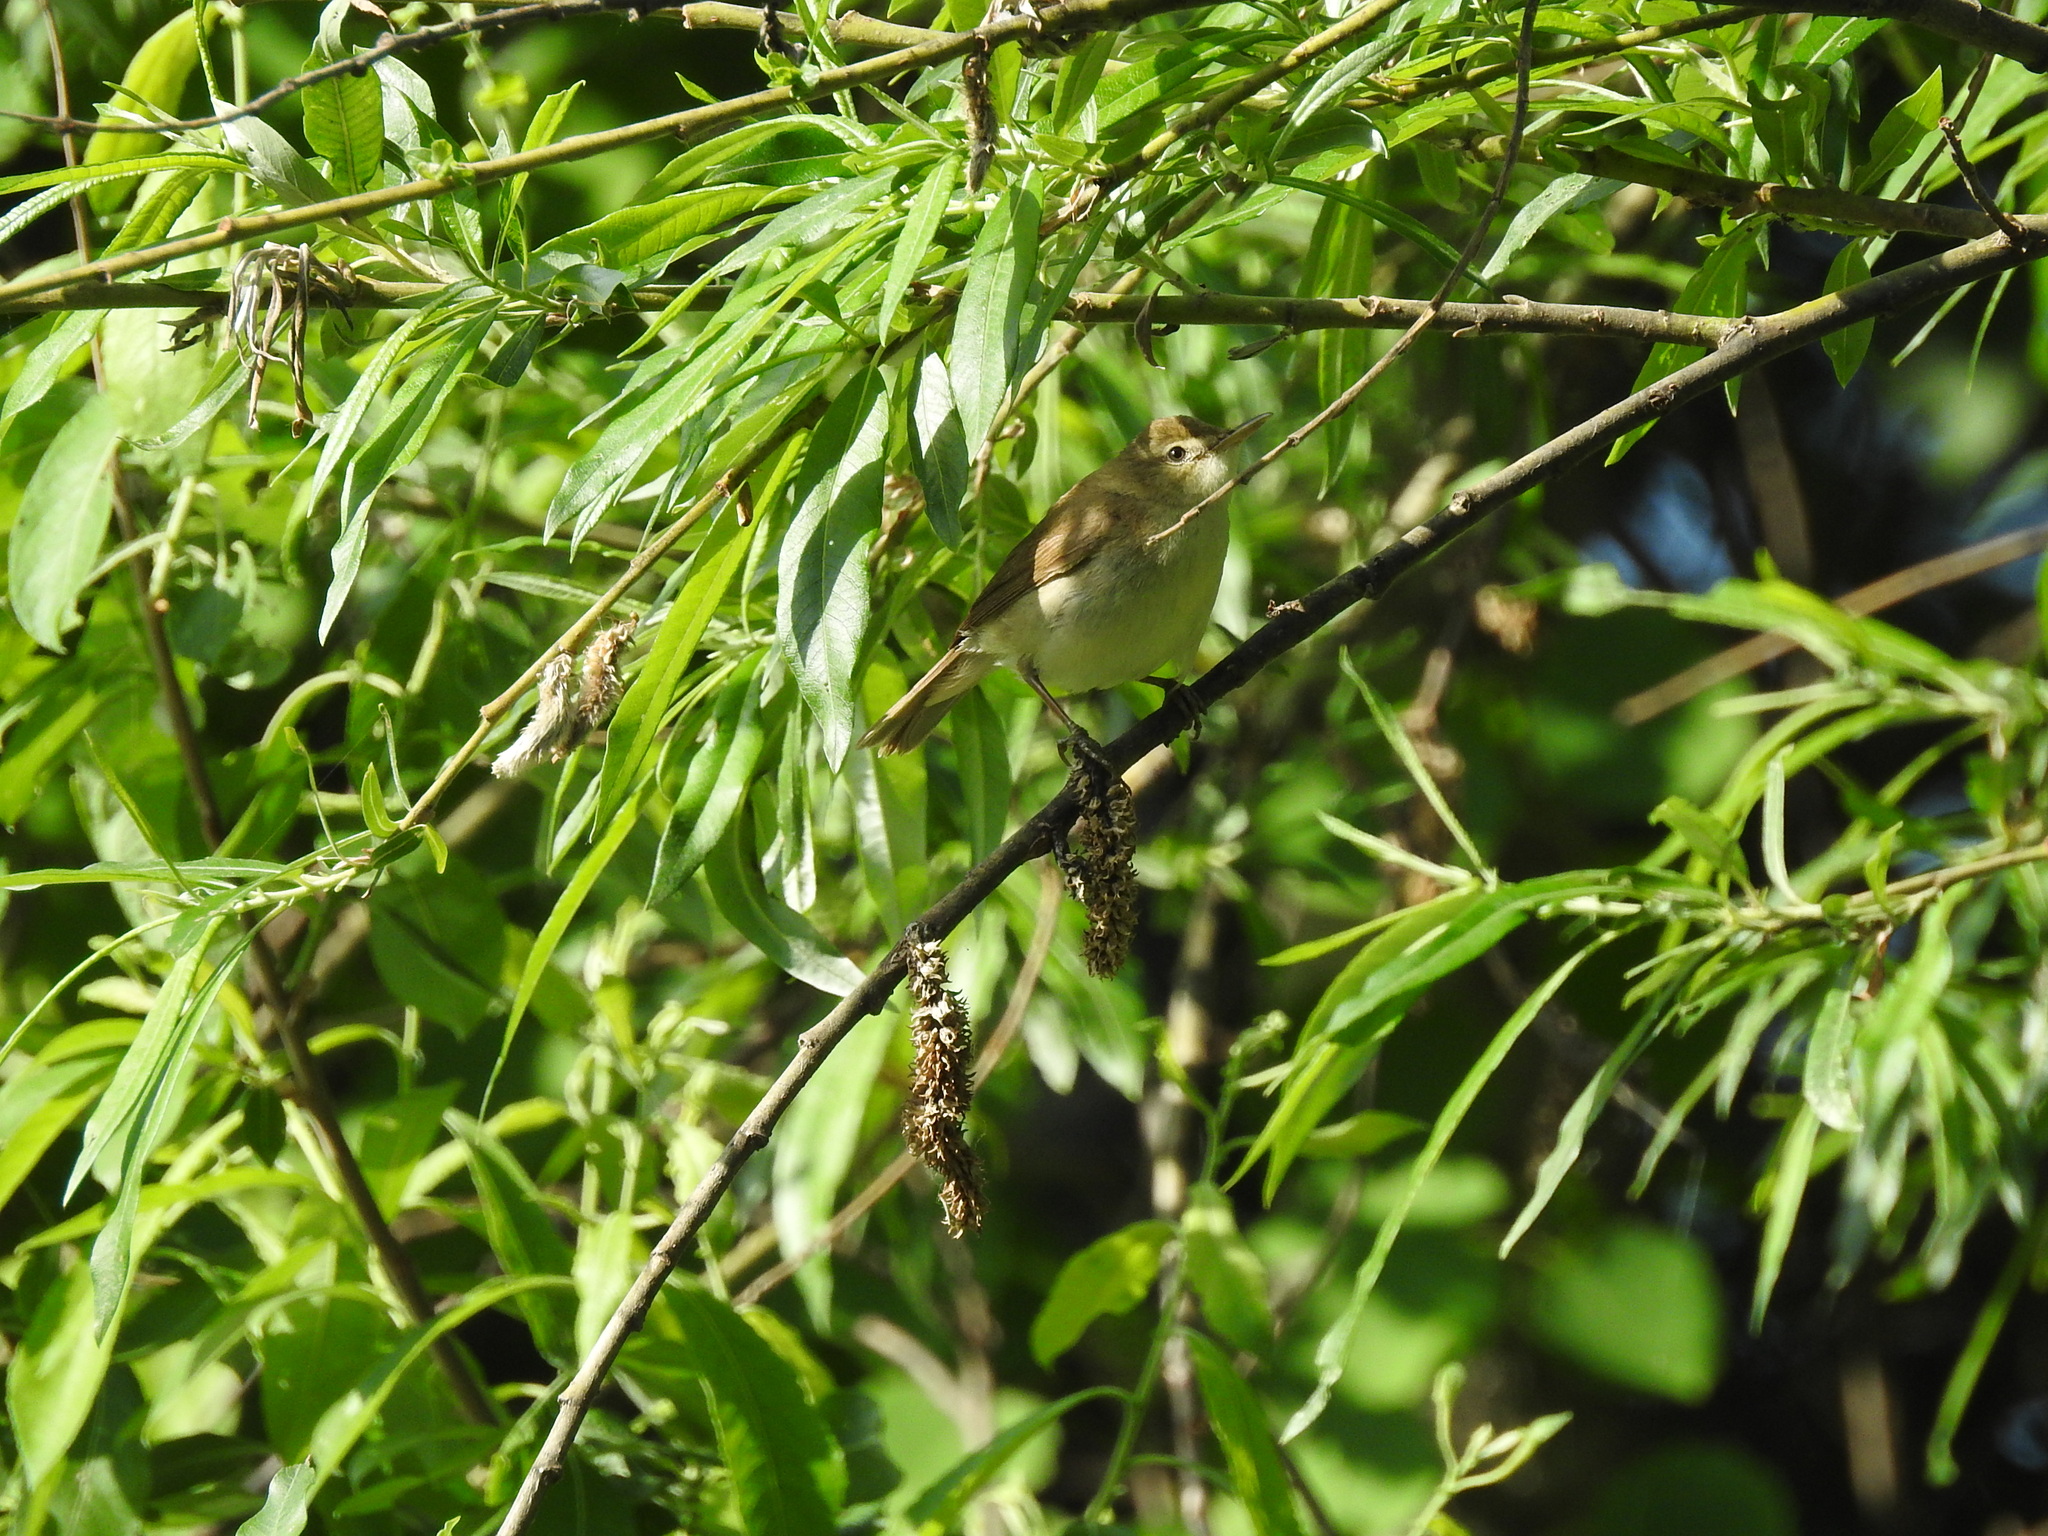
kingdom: Animalia
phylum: Chordata
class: Aves
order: Passeriformes
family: Acrocephalidae
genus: Acrocephalus
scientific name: Acrocephalus dumetorum
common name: Blyth's reed warbler
